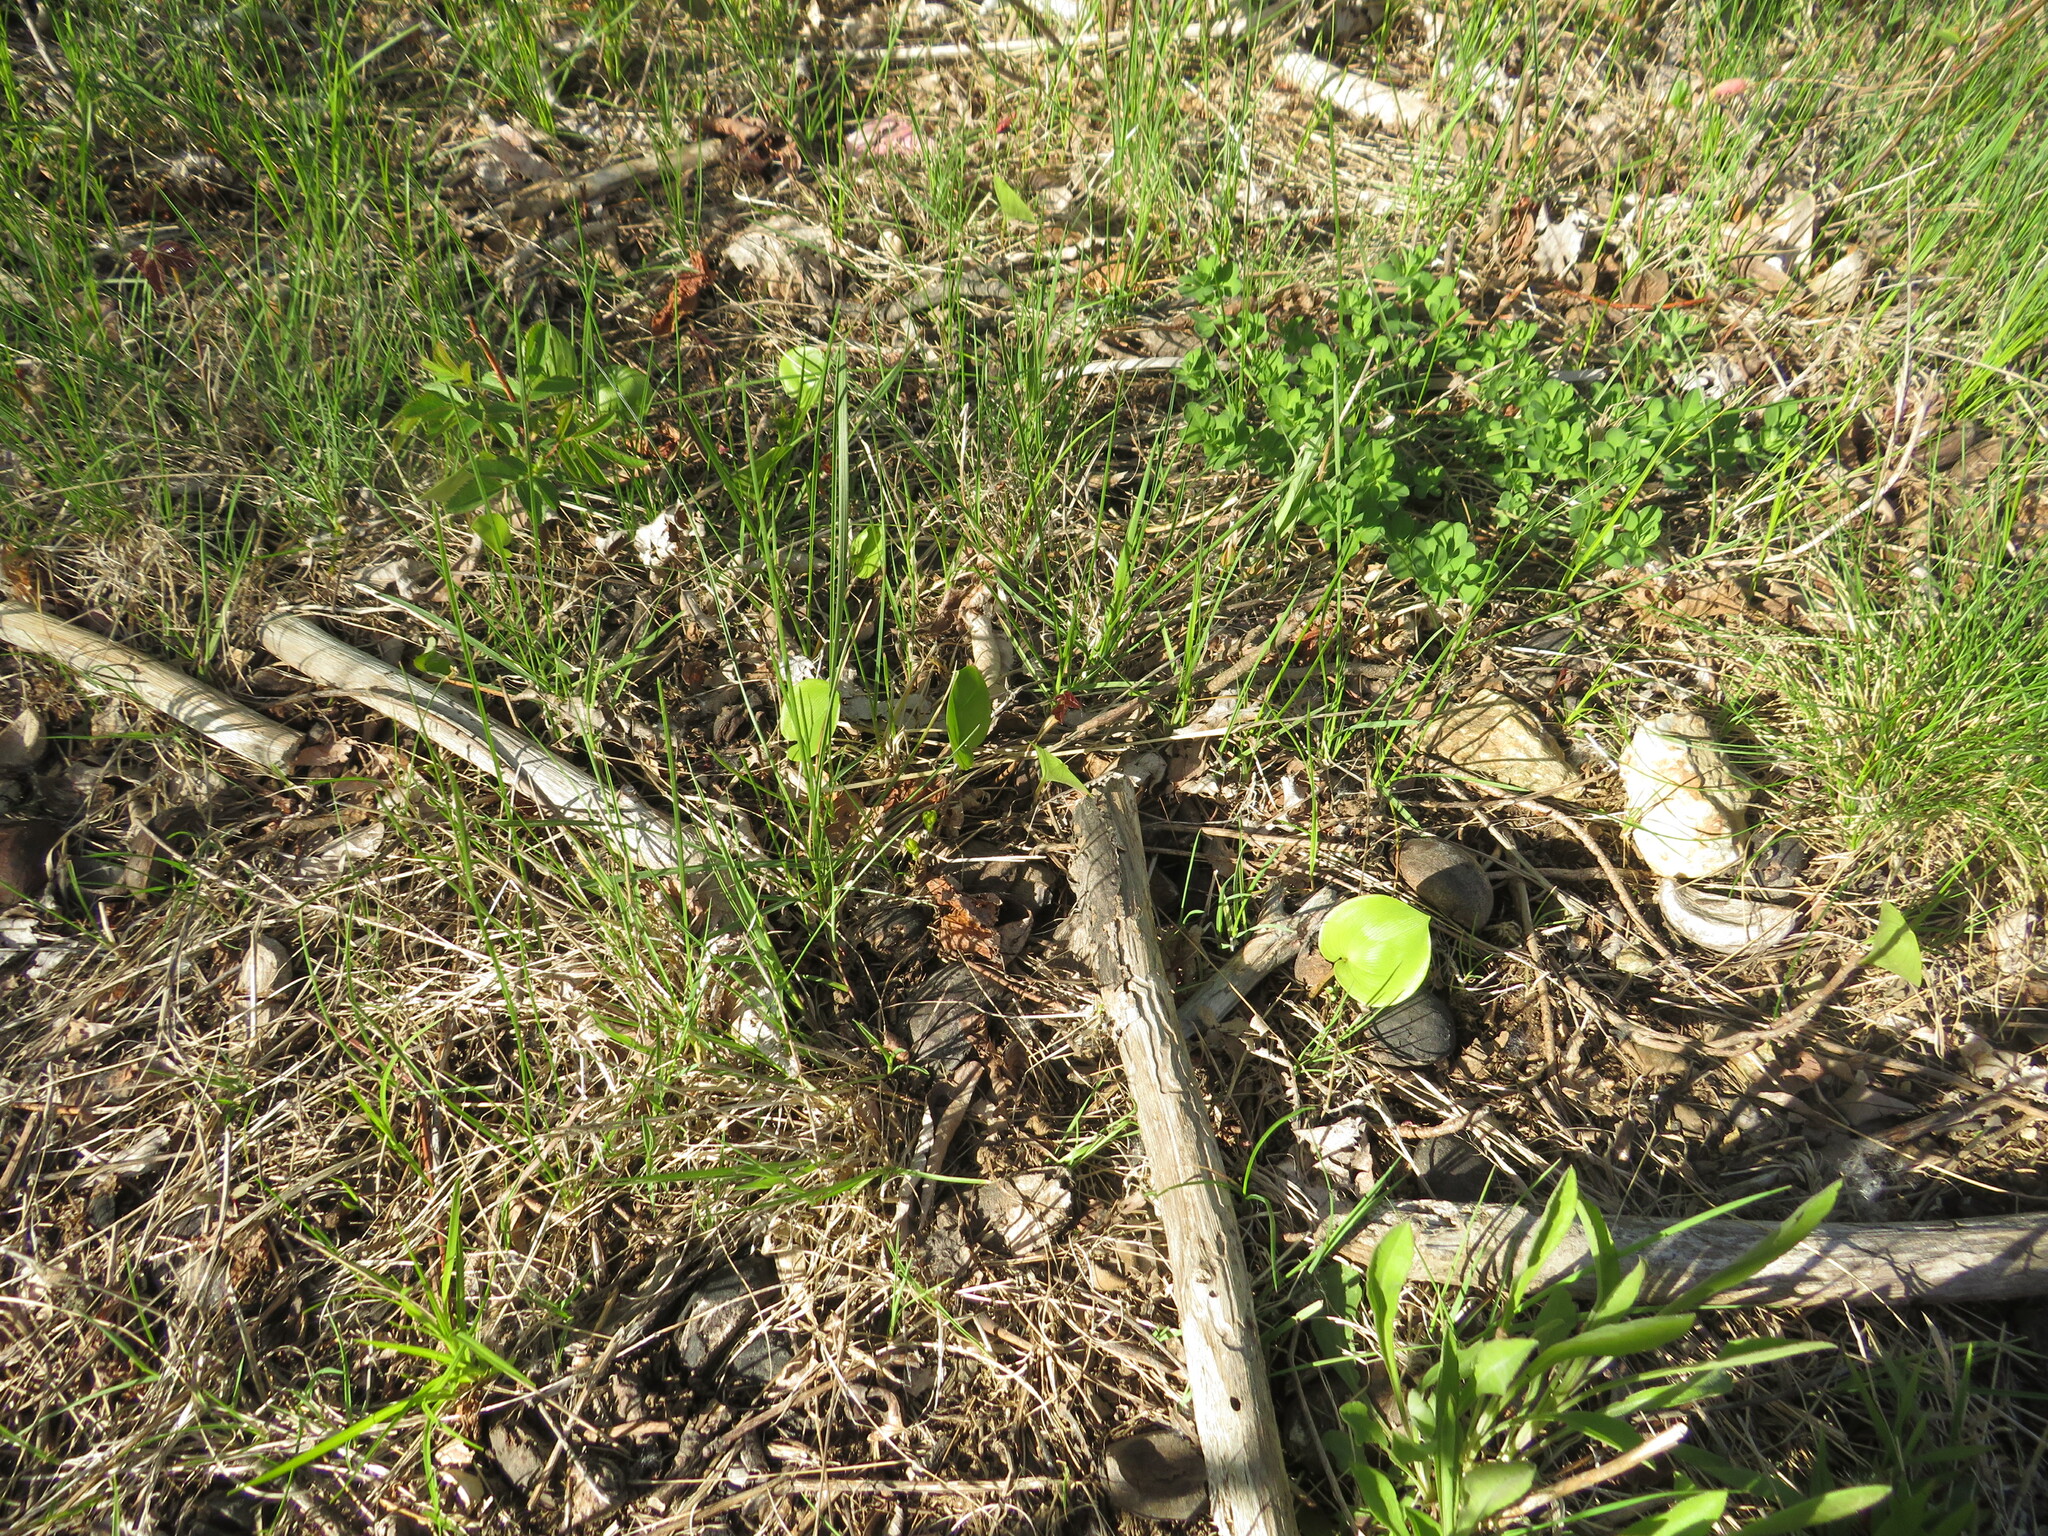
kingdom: Plantae
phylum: Tracheophyta
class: Liliopsida
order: Asparagales
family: Asparagaceae
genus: Maianthemum
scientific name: Maianthemum canadense
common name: False lily-of-the-valley
